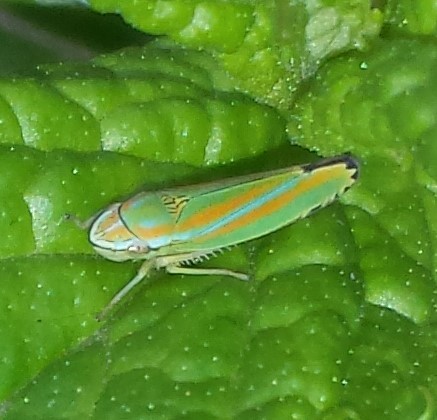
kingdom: Animalia
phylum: Arthropoda
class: Insecta
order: Hemiptera
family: Cicadellidae
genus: Graphocephala
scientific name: Graphocephala versuta
